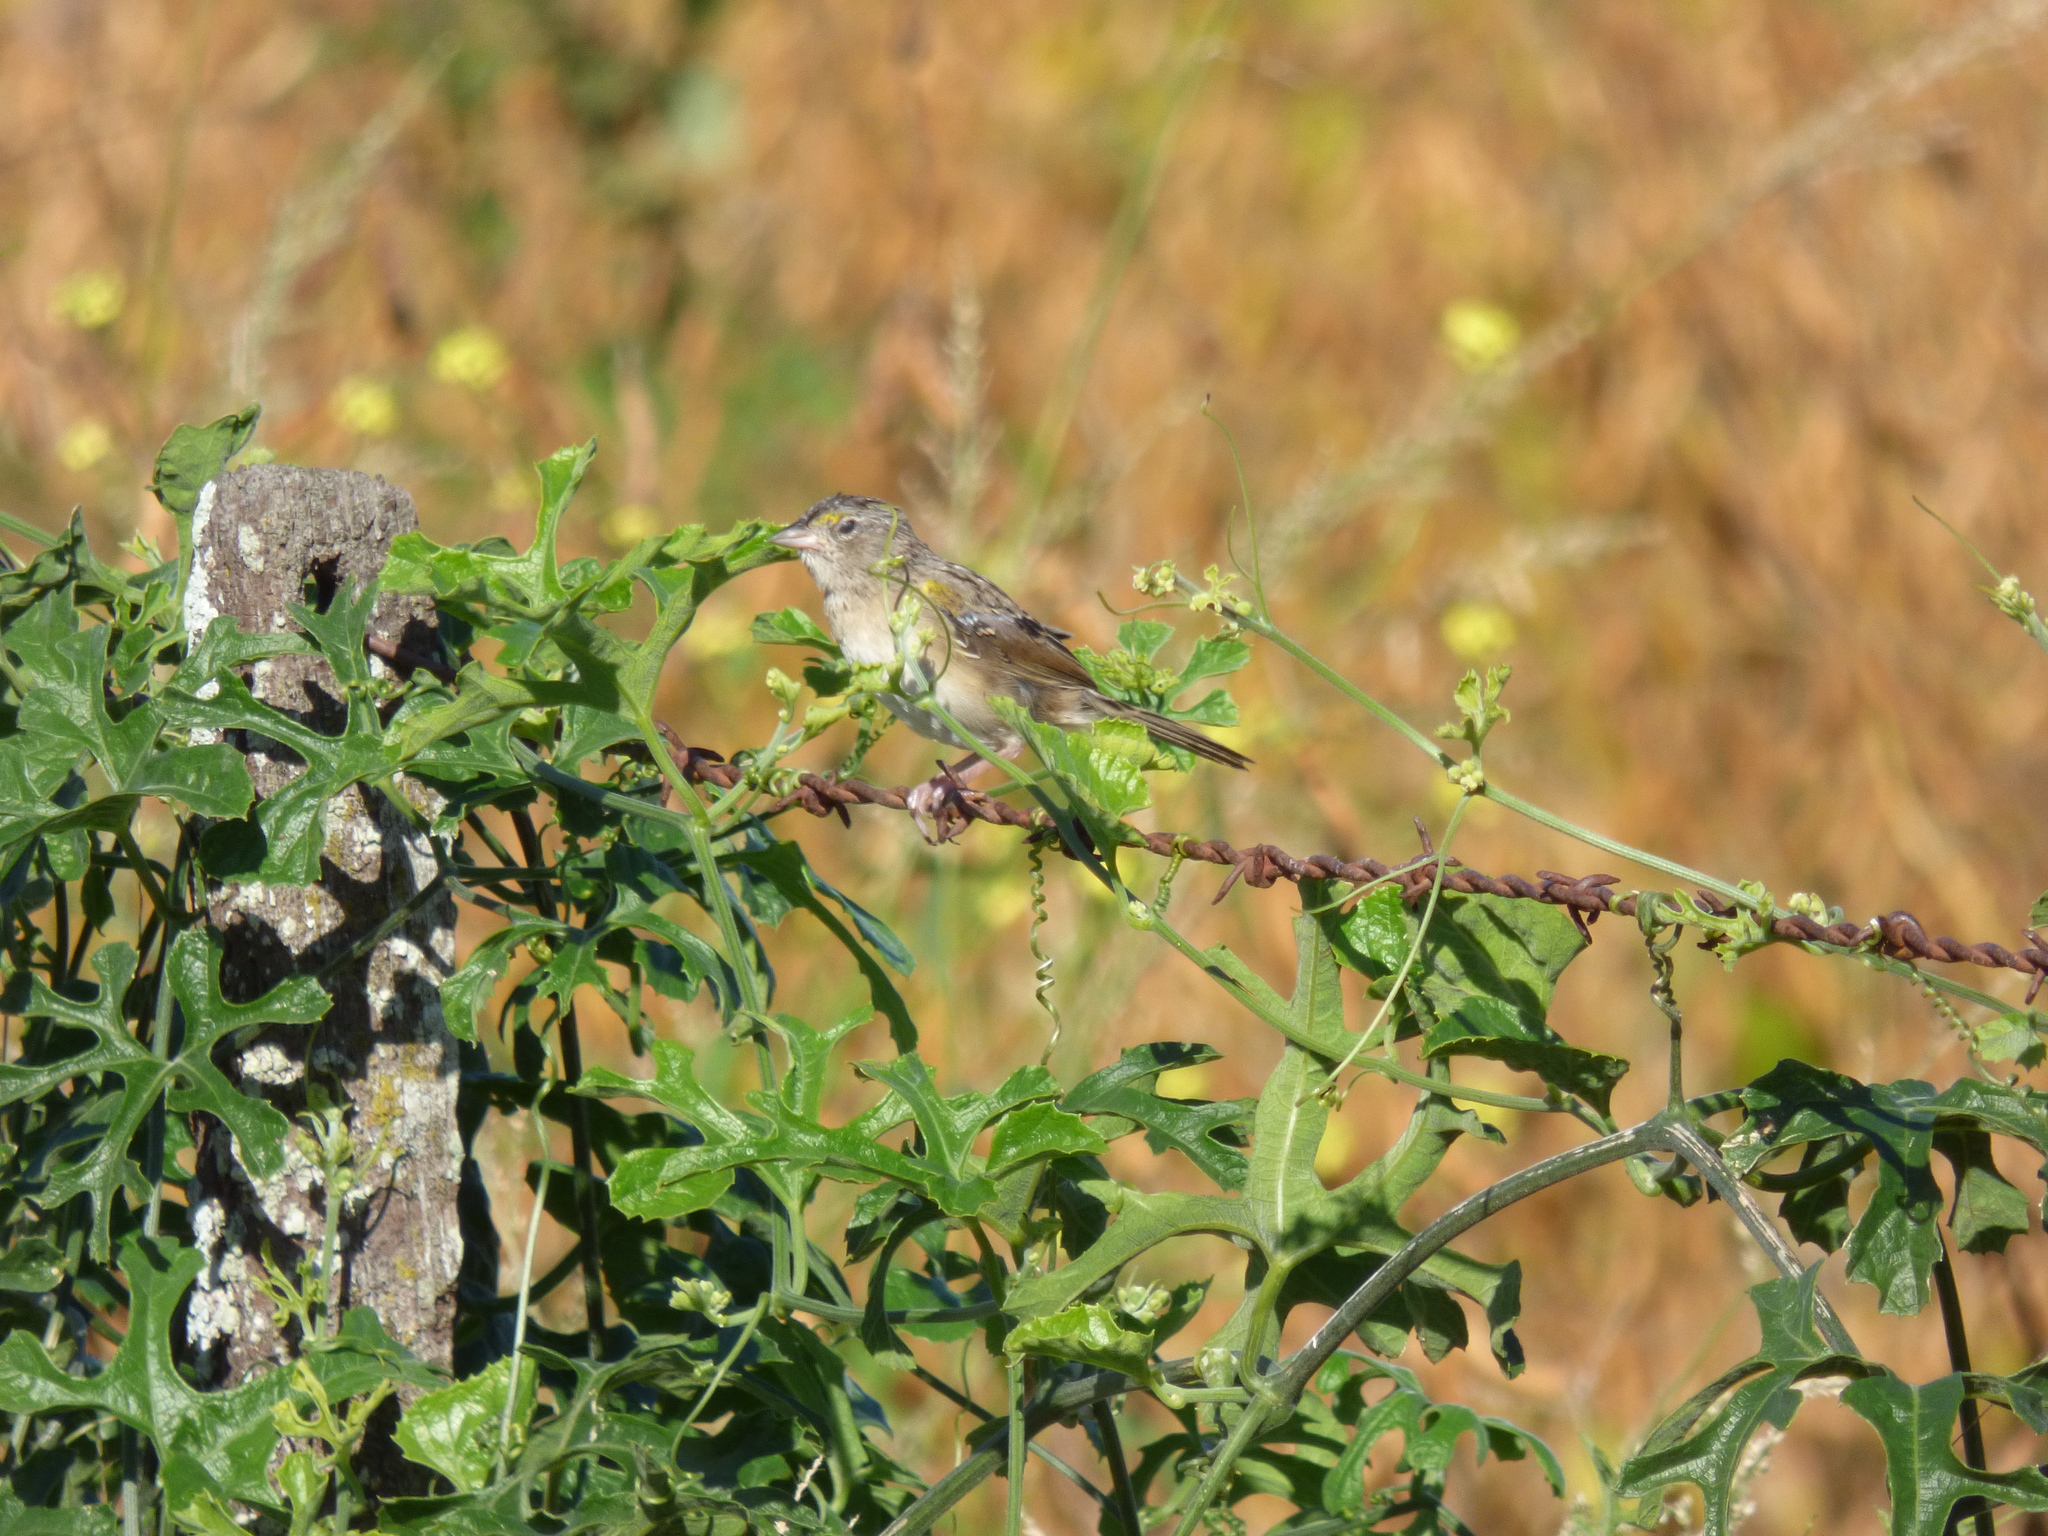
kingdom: Animalia
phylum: Chordata
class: Aves
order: Passeriformes
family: Passerellidae
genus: Ammodramus
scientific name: Ammodramus humeralis
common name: Grassland sparrow
